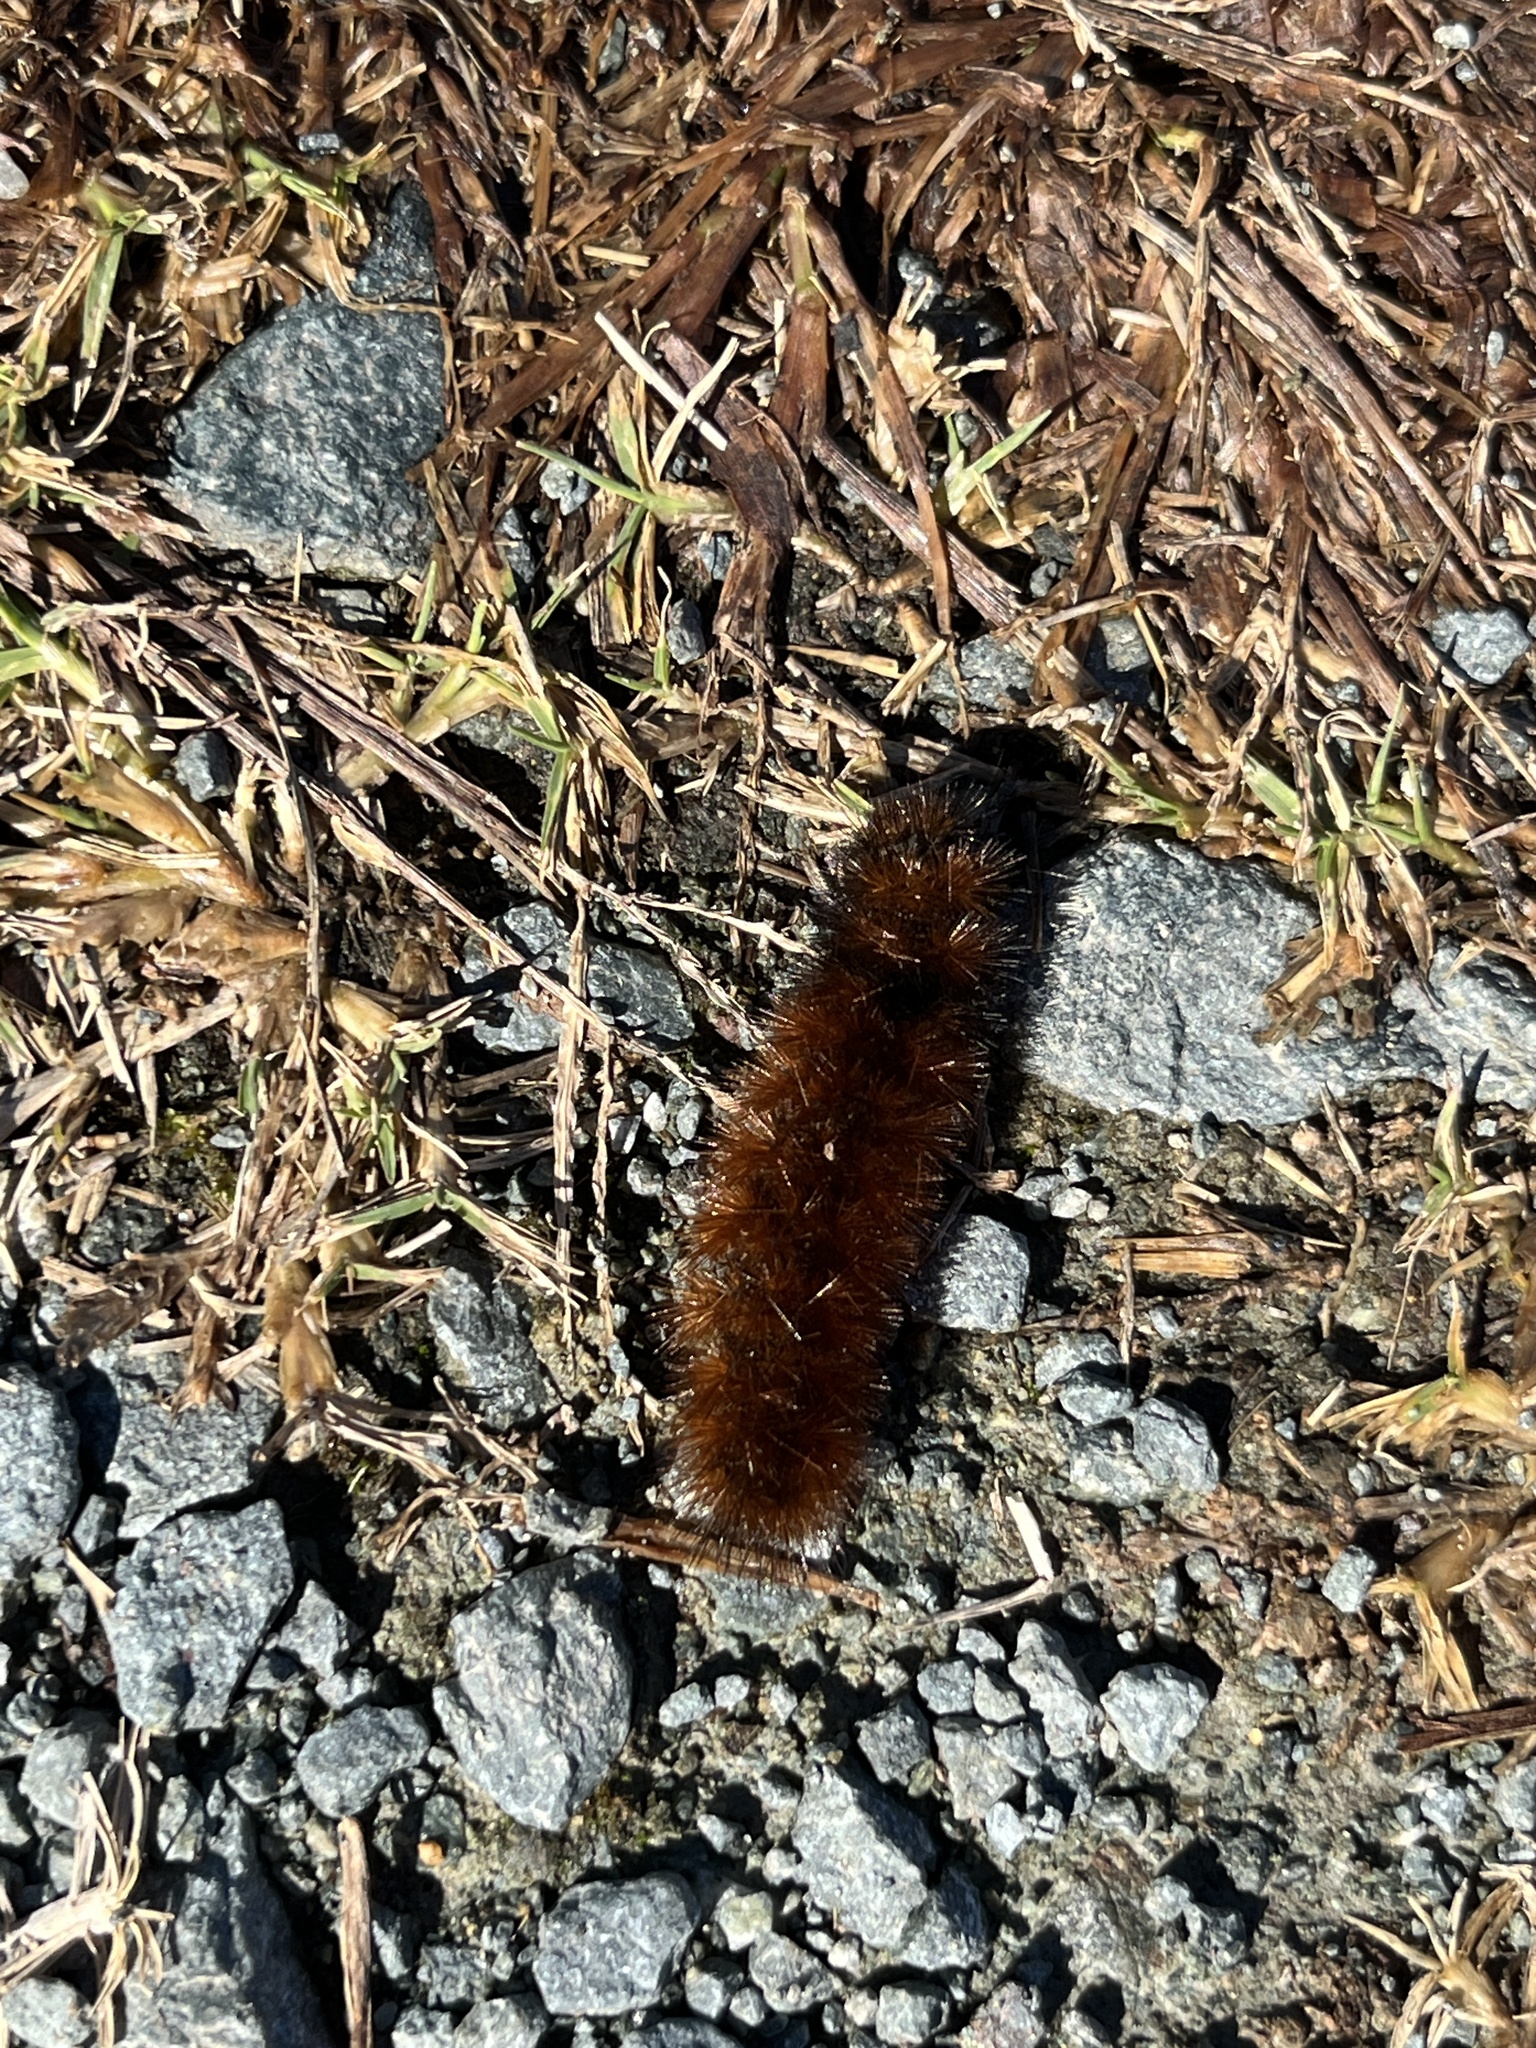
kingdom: Animalia
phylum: Arthropoda
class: Insecta
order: Lepidoptera
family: Erebidae
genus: Pyrrharctia
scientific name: Pyrrharctia isabella
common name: Isabella tiger moth
